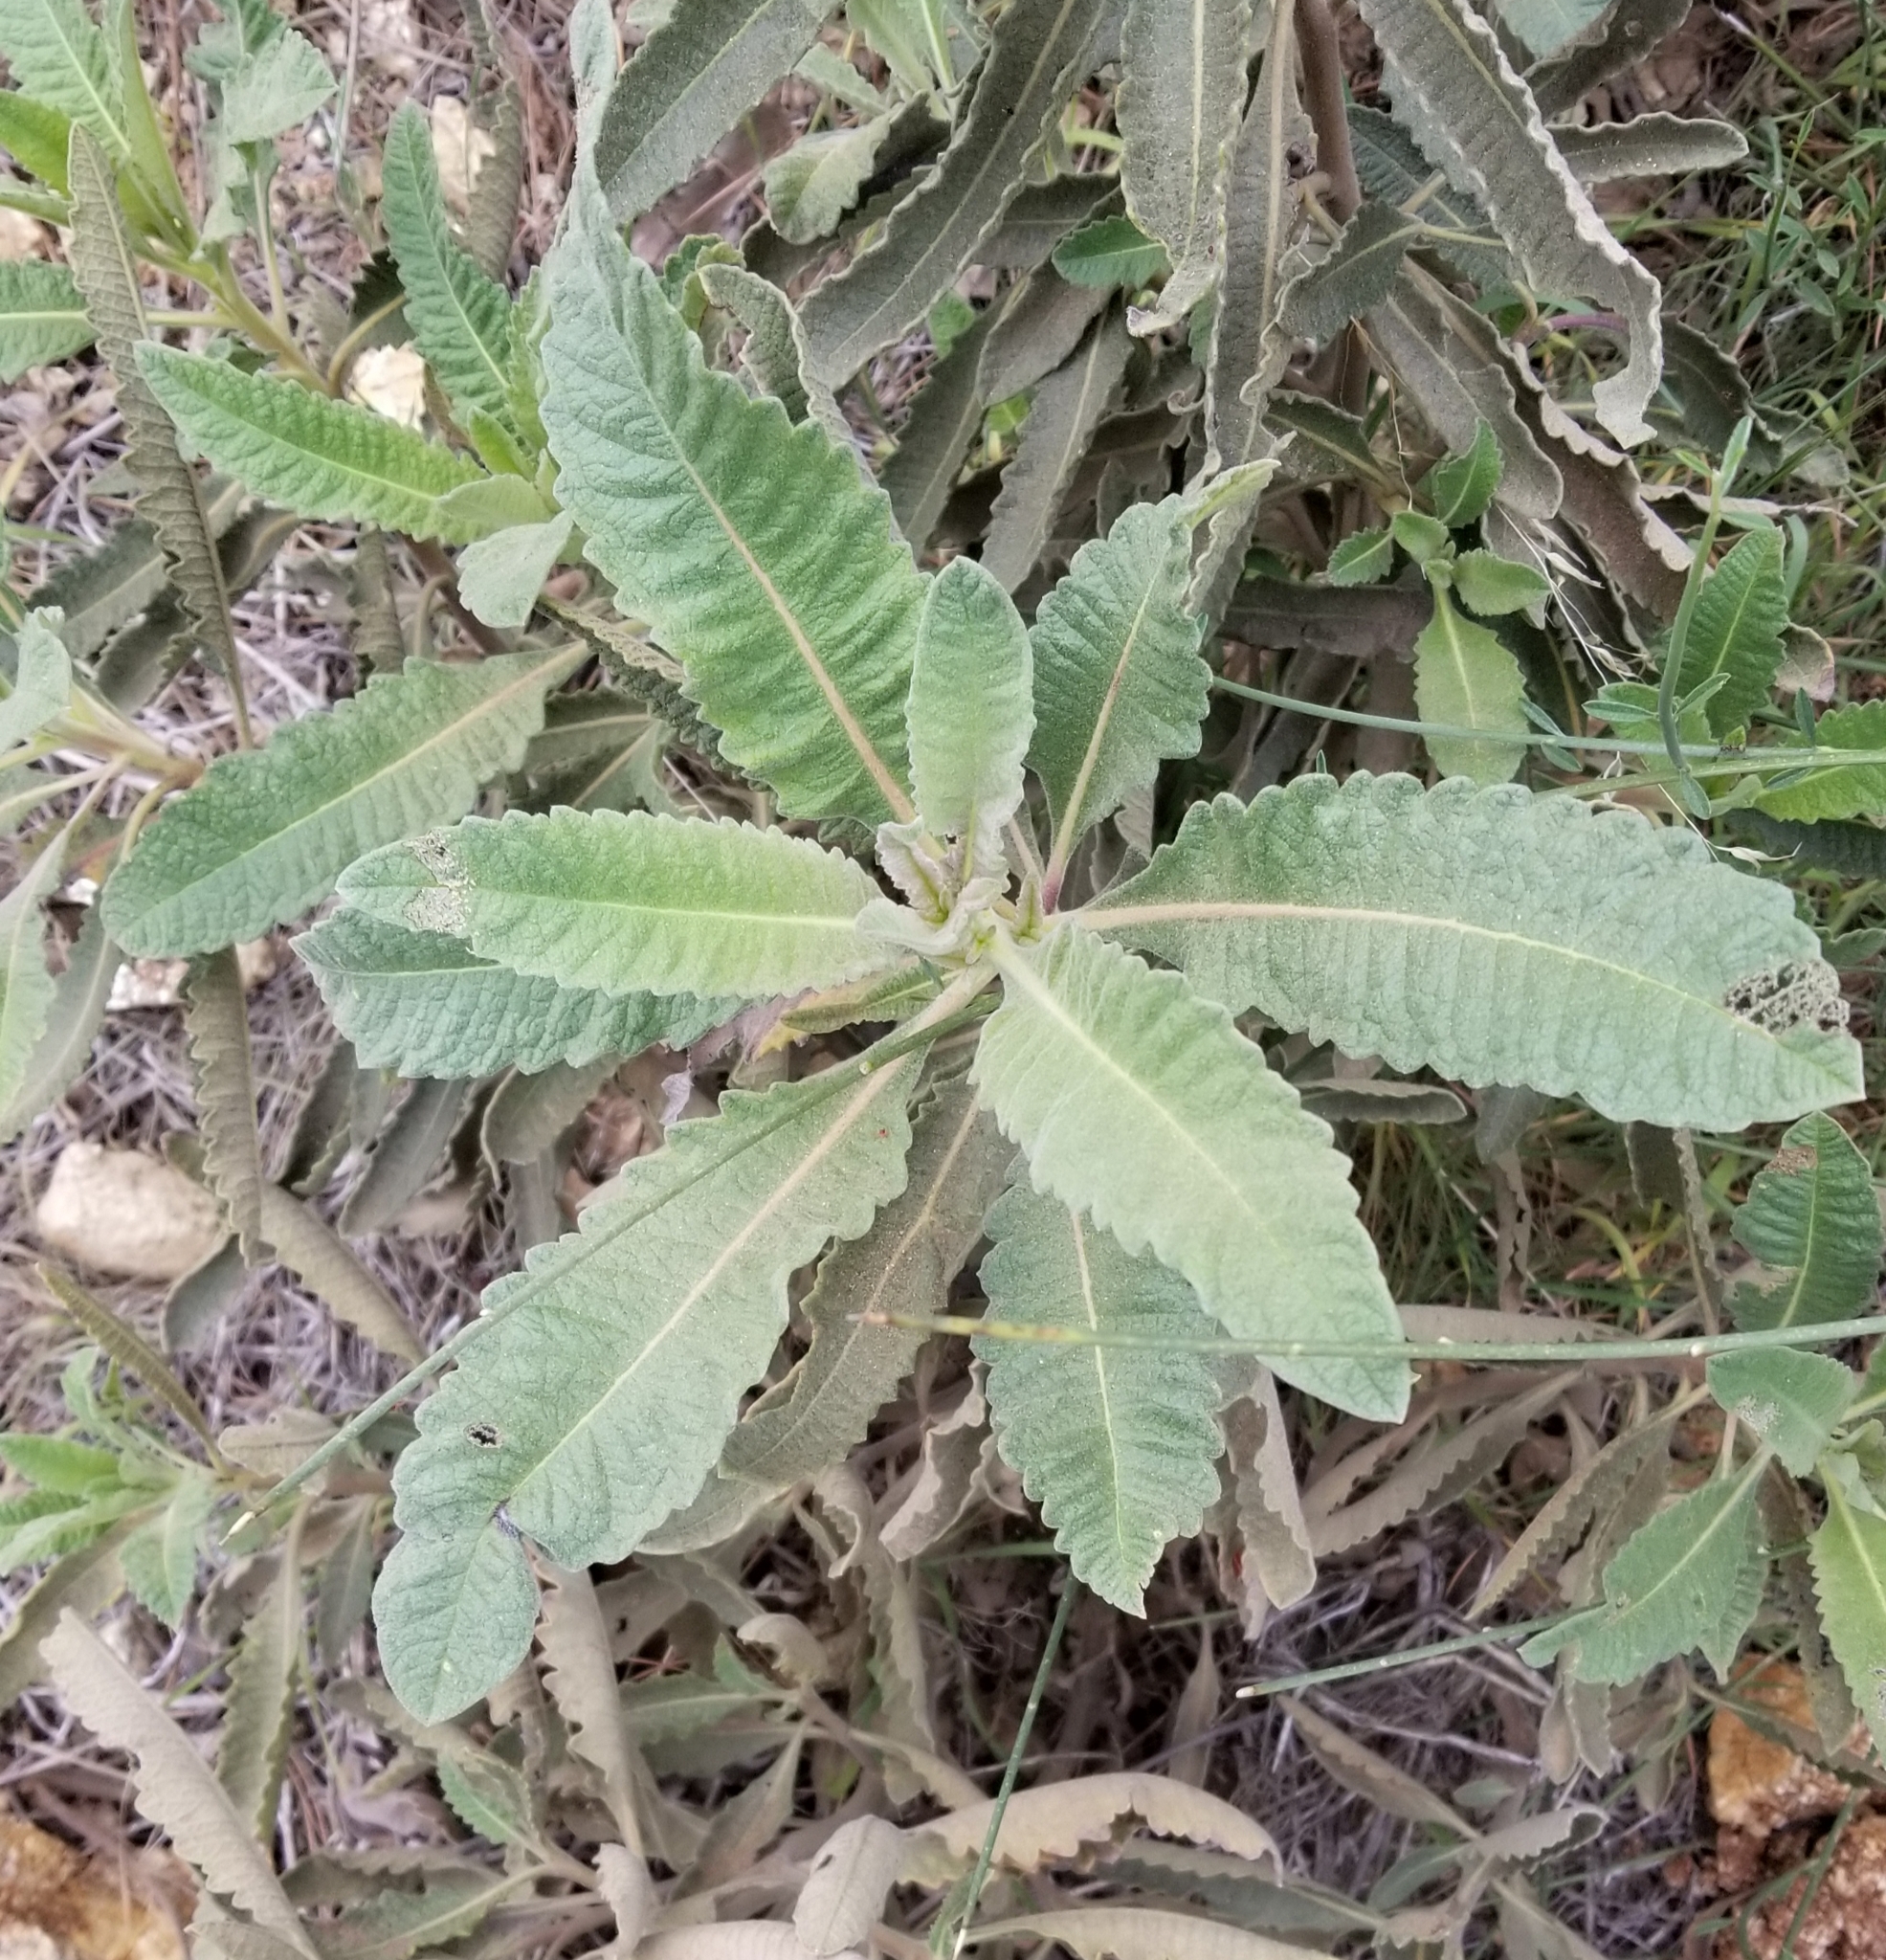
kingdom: Plantae
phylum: Tracheophyta
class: Magnoliopsida
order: Boraginales
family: Namaceae
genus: Eriodictyon
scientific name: Eriodictyon crassifolium
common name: Thick-leaf yerba-santa
